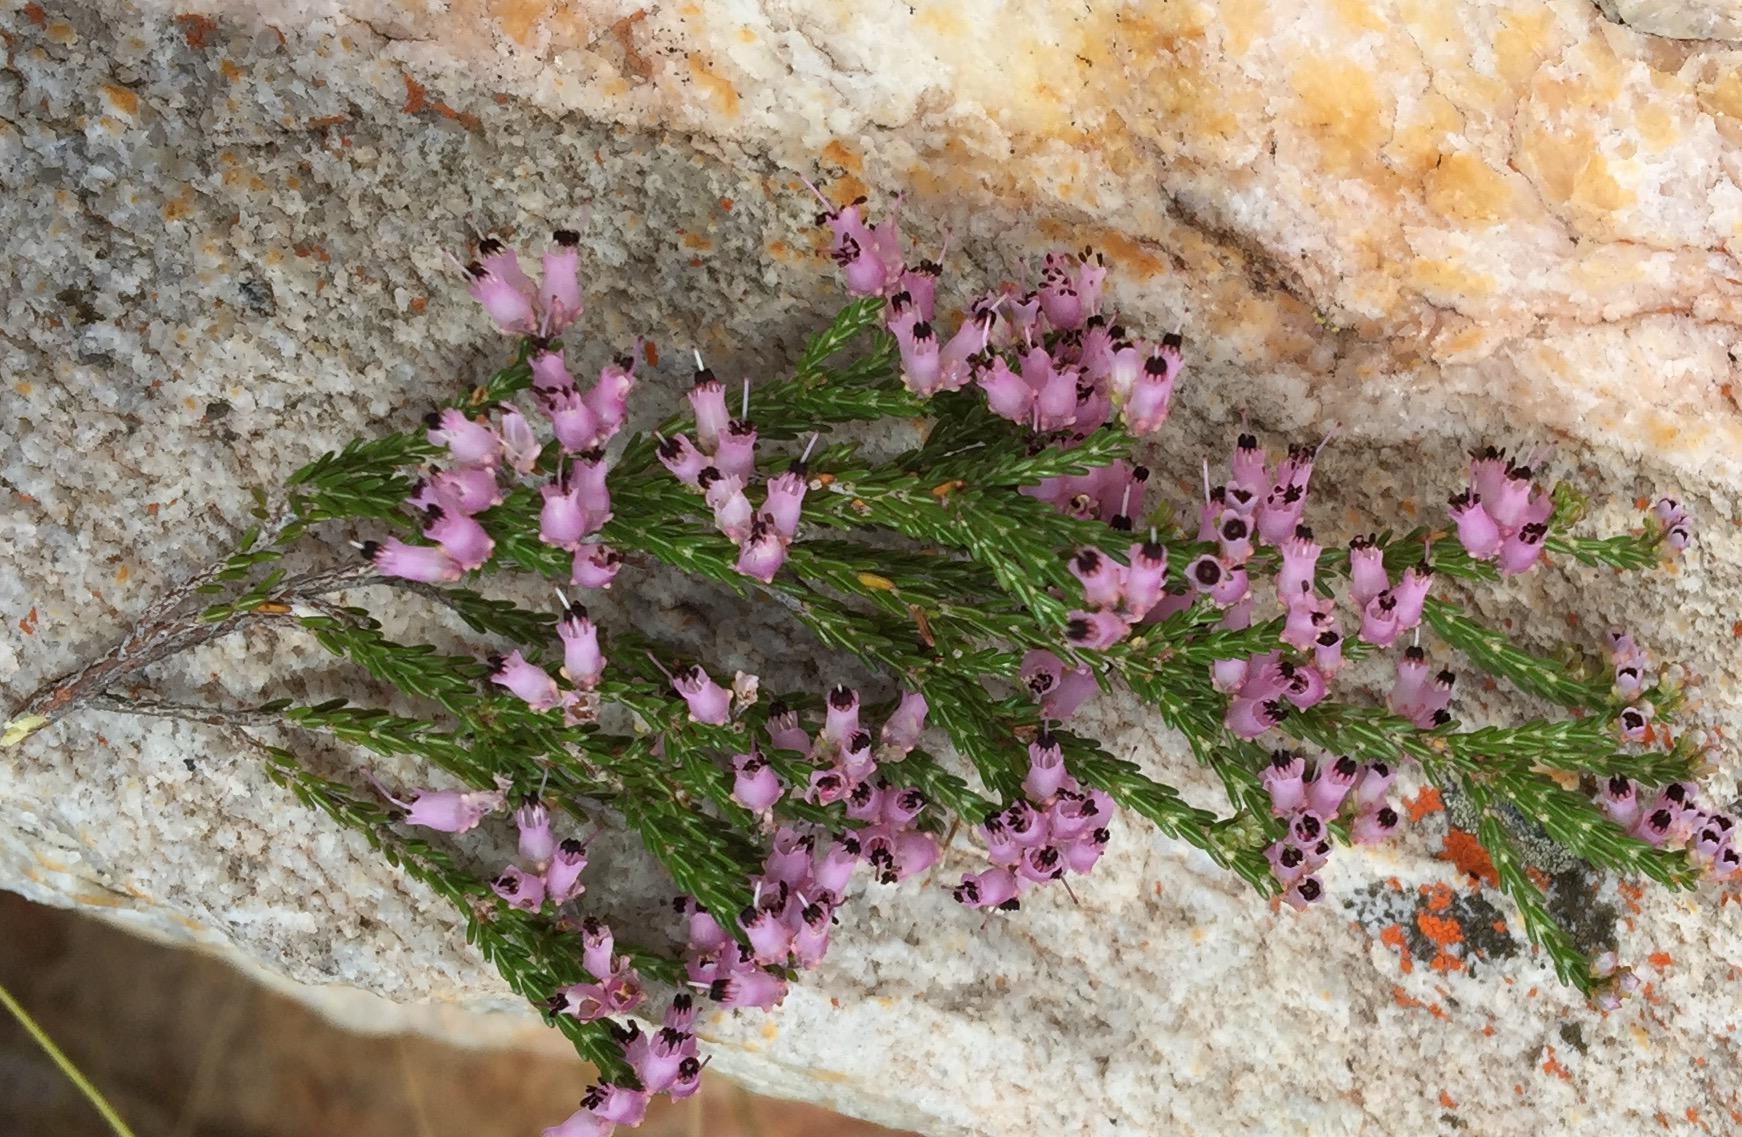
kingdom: Plantae
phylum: Tracheophyta
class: Magnoliopsida
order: Ericales
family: Ericaceae
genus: Erica
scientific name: Erica demissa
